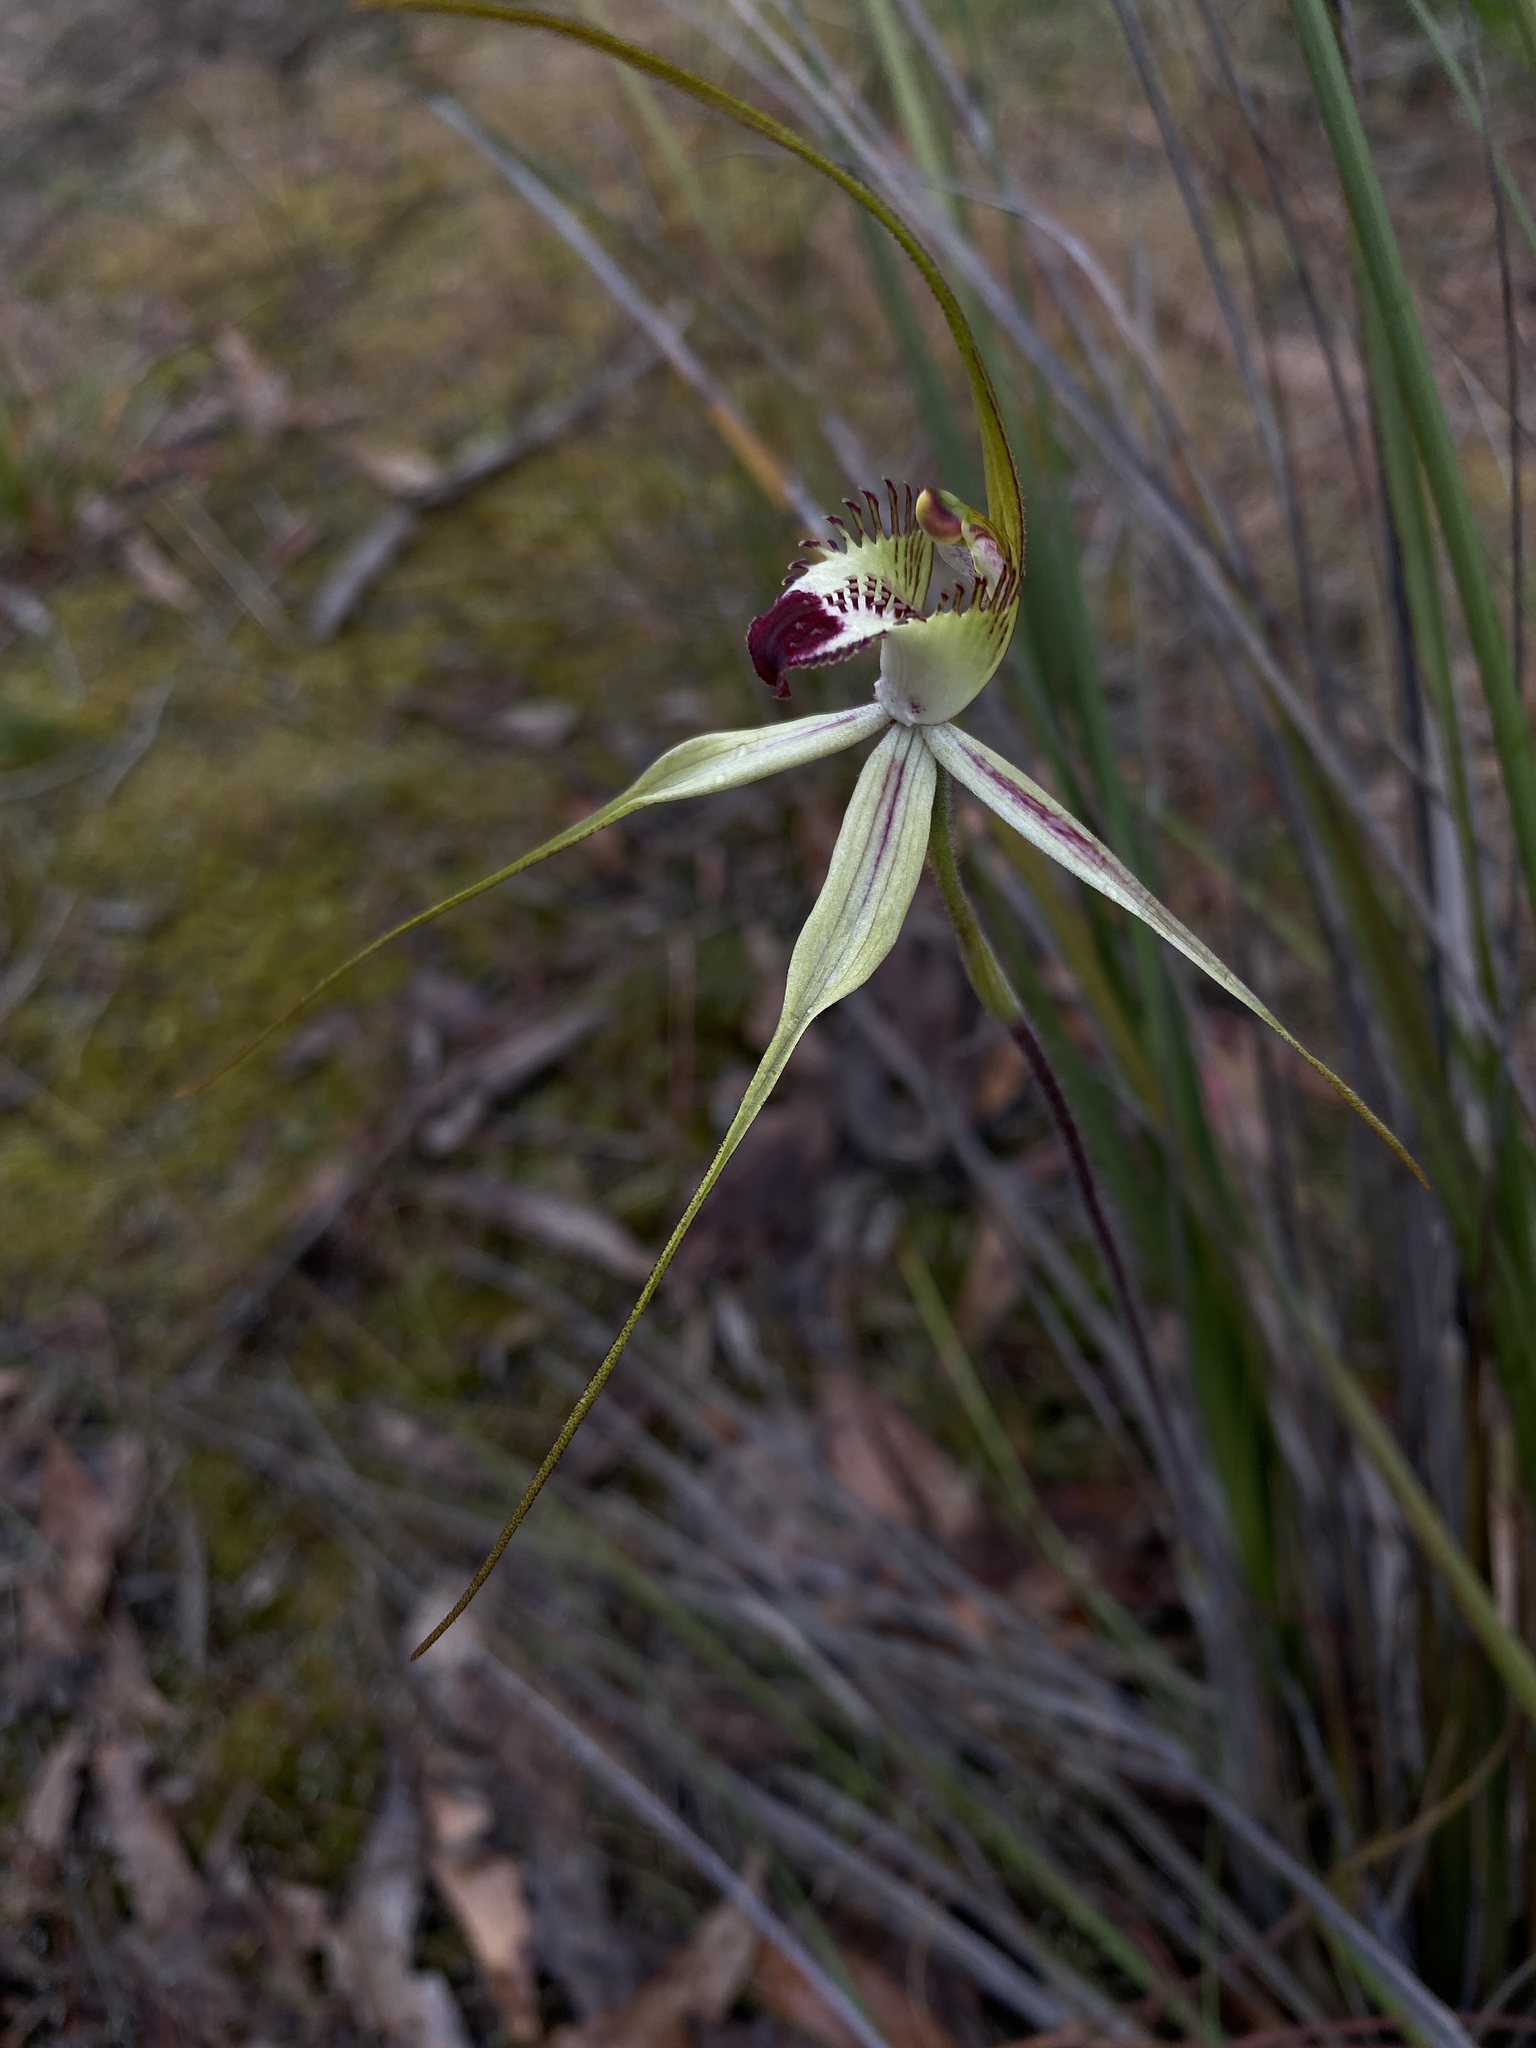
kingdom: Plantae
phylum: Tracheophyta
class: Liliopsida
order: Asparagales
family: Orchidaceae
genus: Caladenia
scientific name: Caladenia
